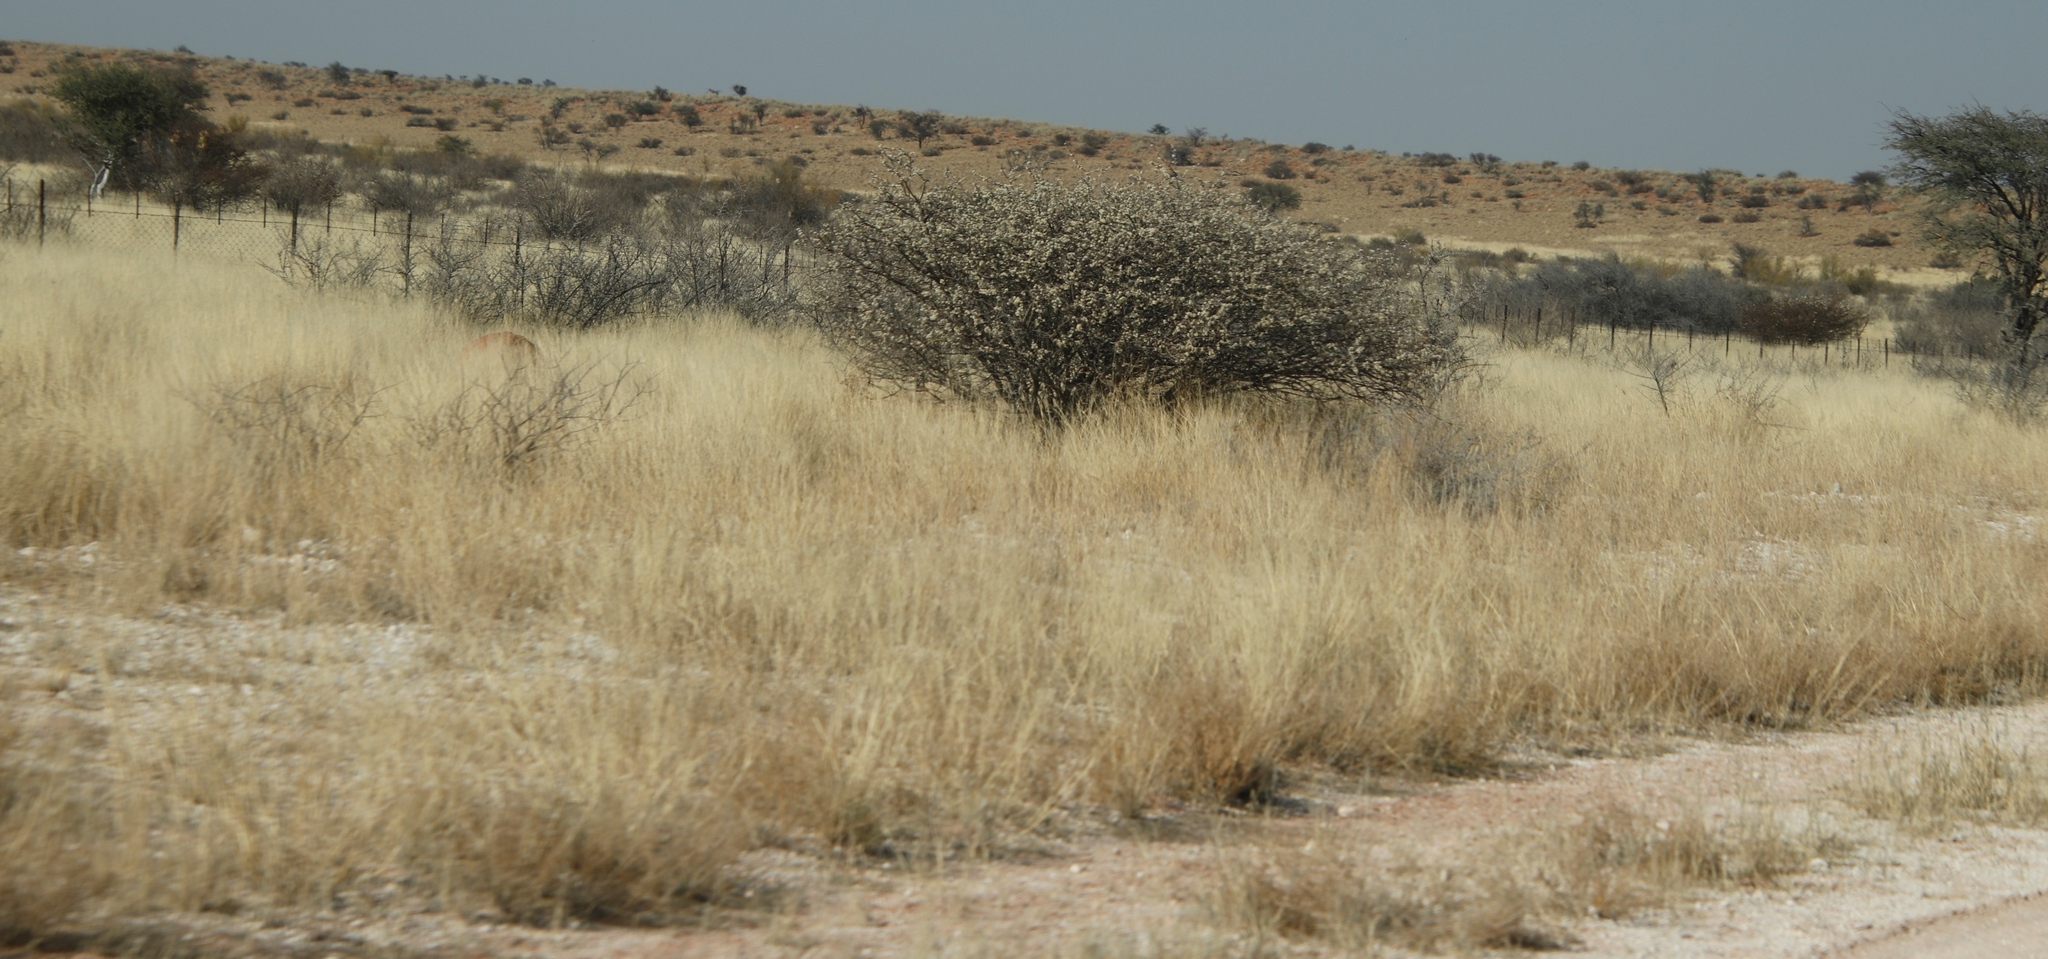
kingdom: Plantae
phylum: Tracheophyta
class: Magnoliopsida
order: Fabales
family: Fabaceae
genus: Senegalia
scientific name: Senegalia mellifera
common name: Hookthorn
